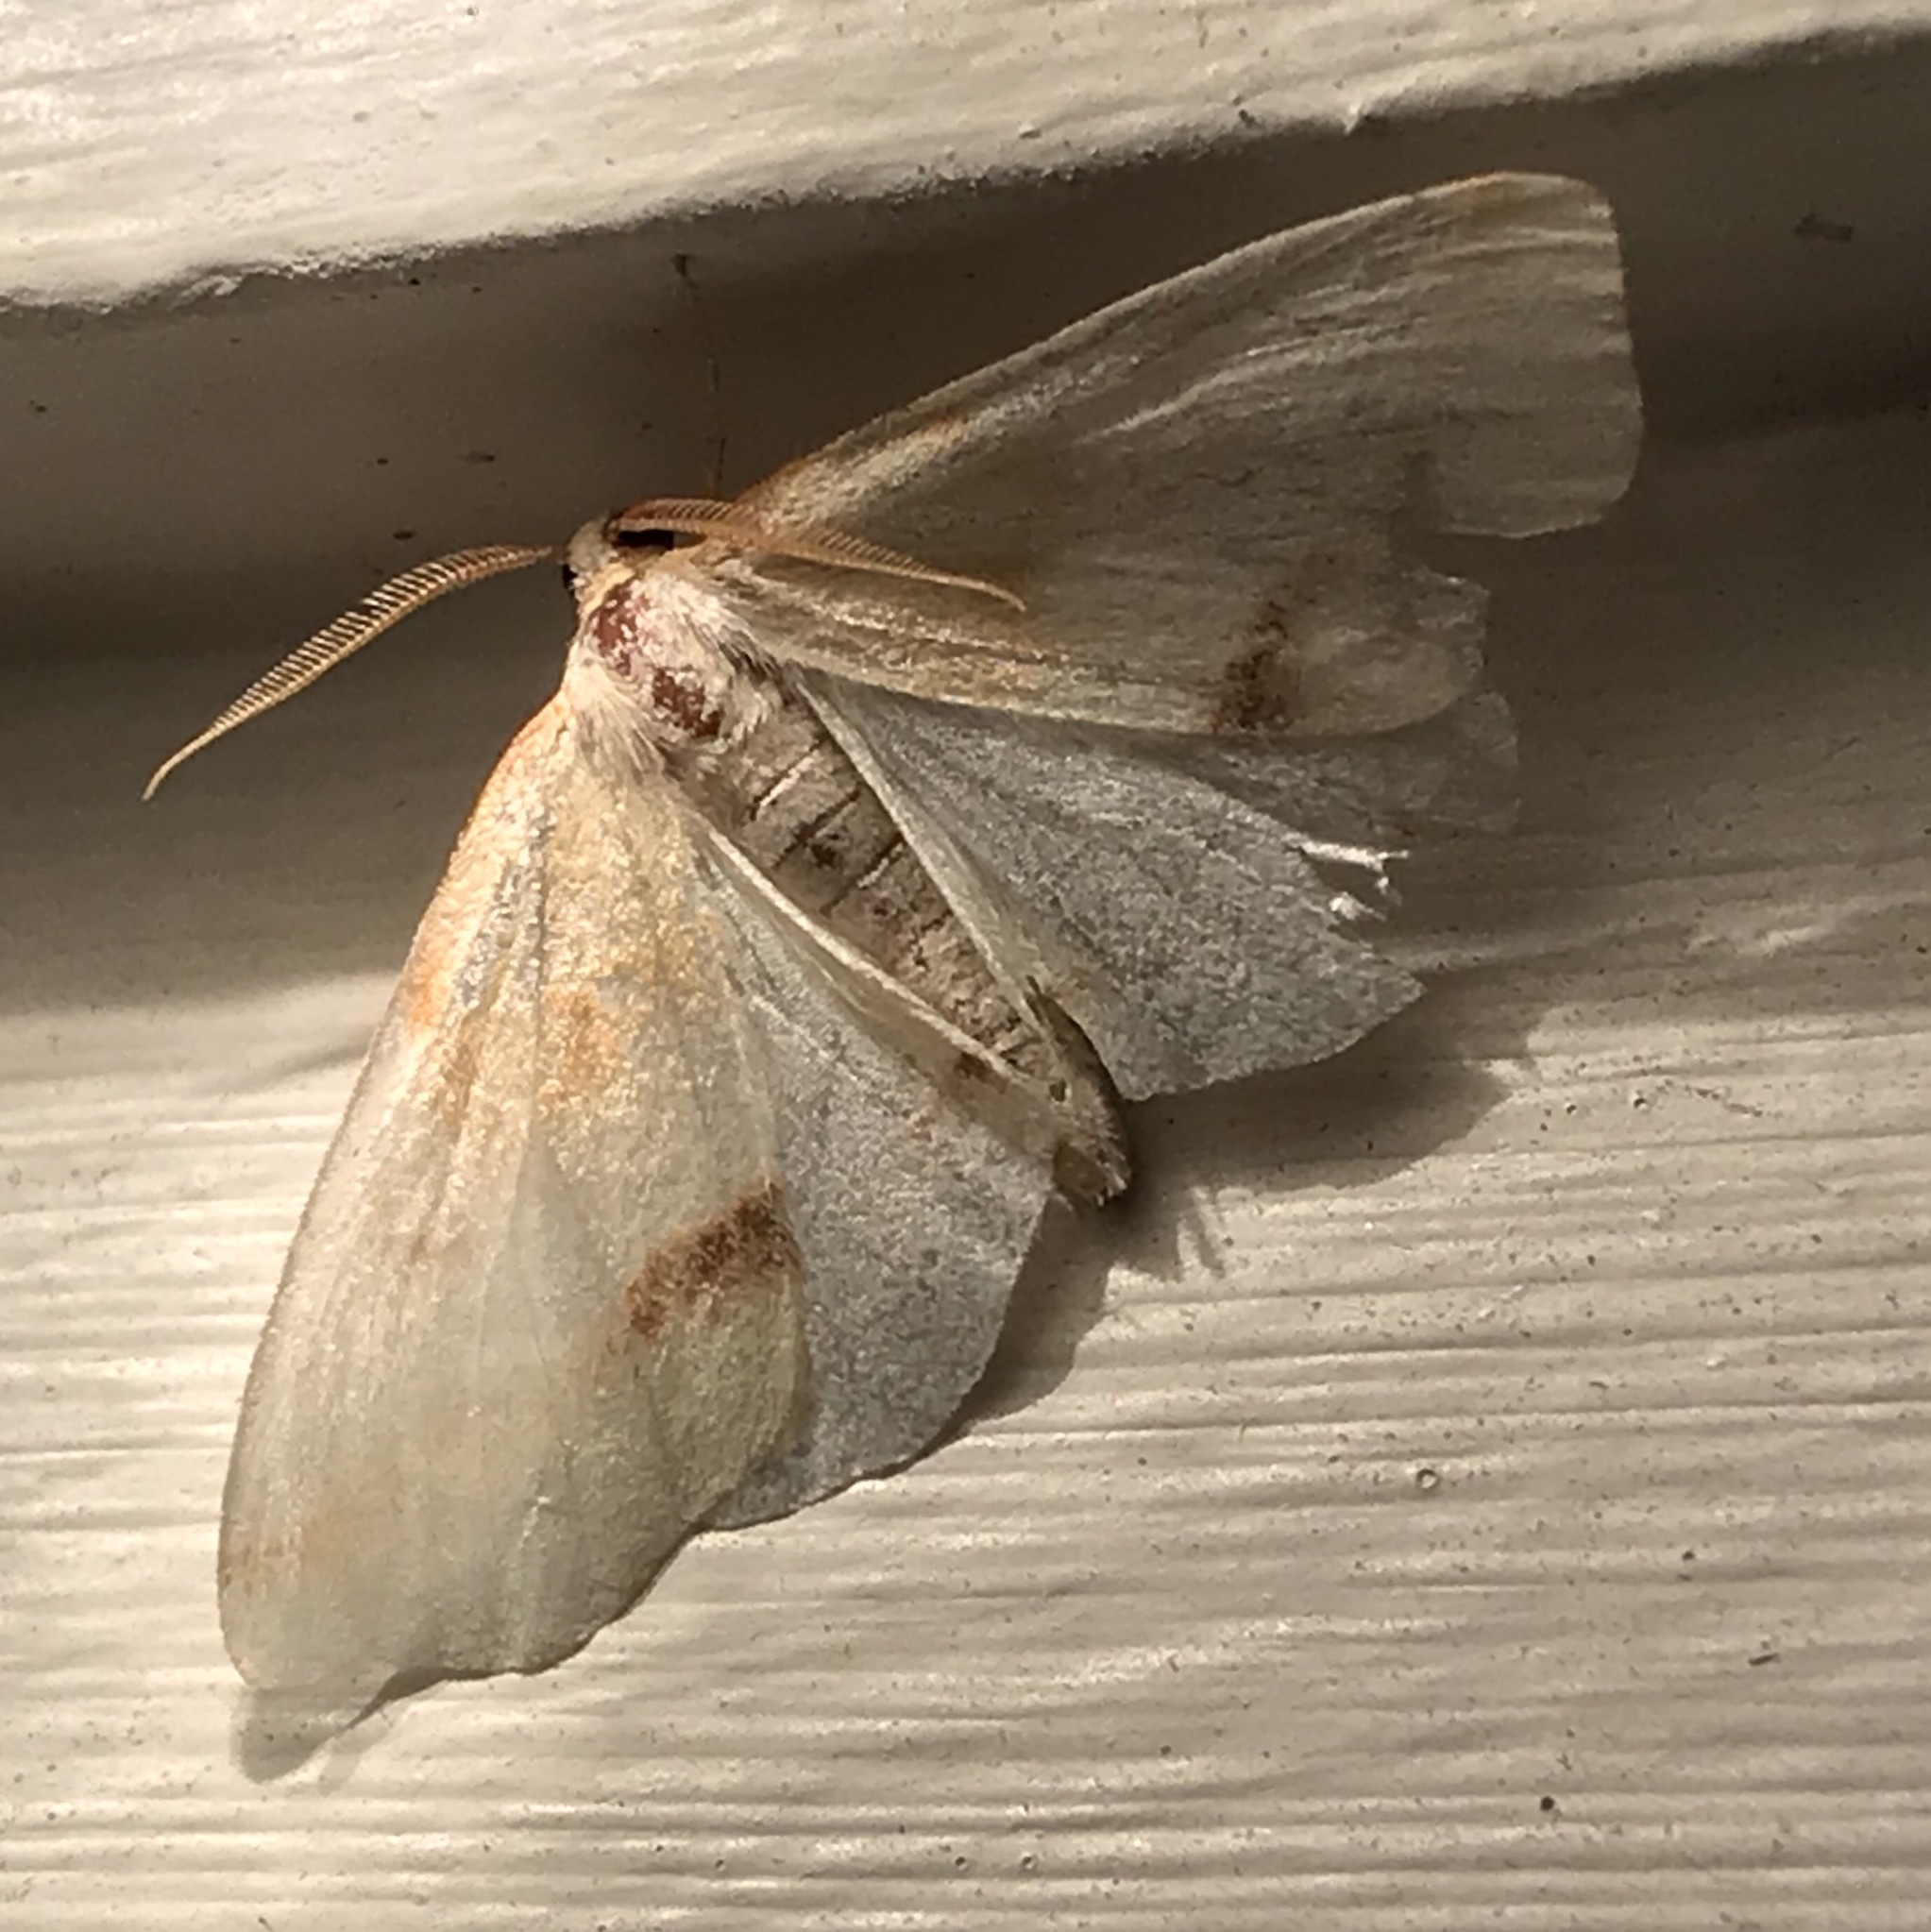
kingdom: Animalia
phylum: Arthropoda
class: Insecta
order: Lepidoptera
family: Geometridae
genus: Plagodis
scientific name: Plagodis serinaria
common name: Lemon plagodis
